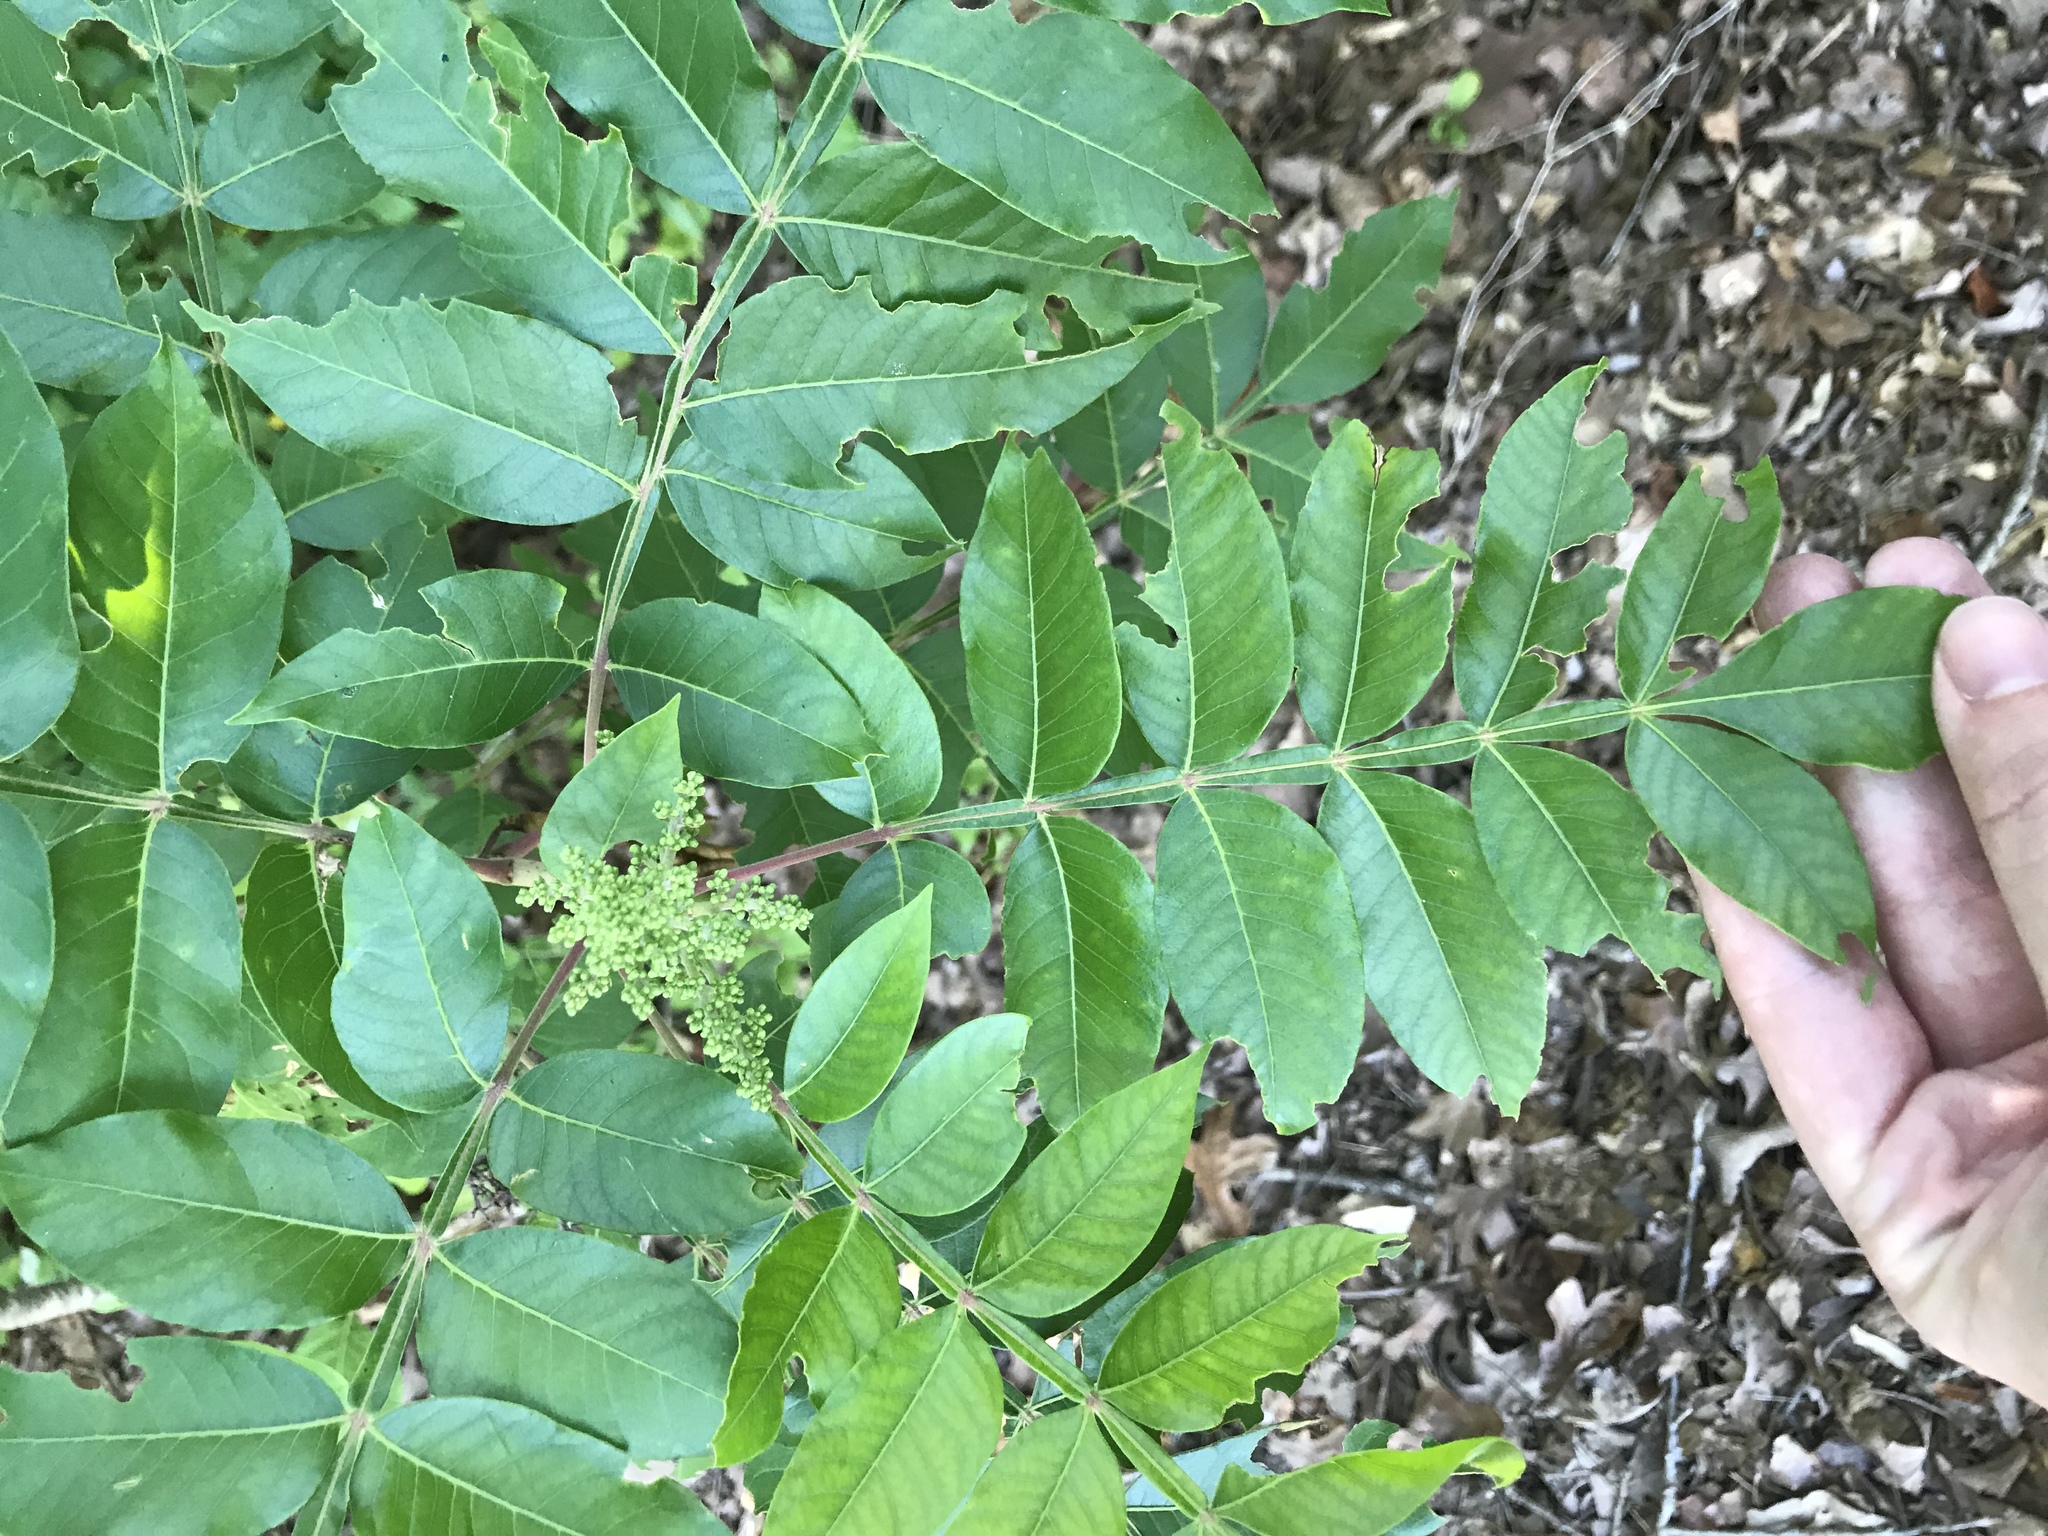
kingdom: Plantae
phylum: Tracheophyta
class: Magnoliopsida
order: Sapindales
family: Anacardiaceae
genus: Rhus
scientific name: Rhus copallina
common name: Shining sumac
